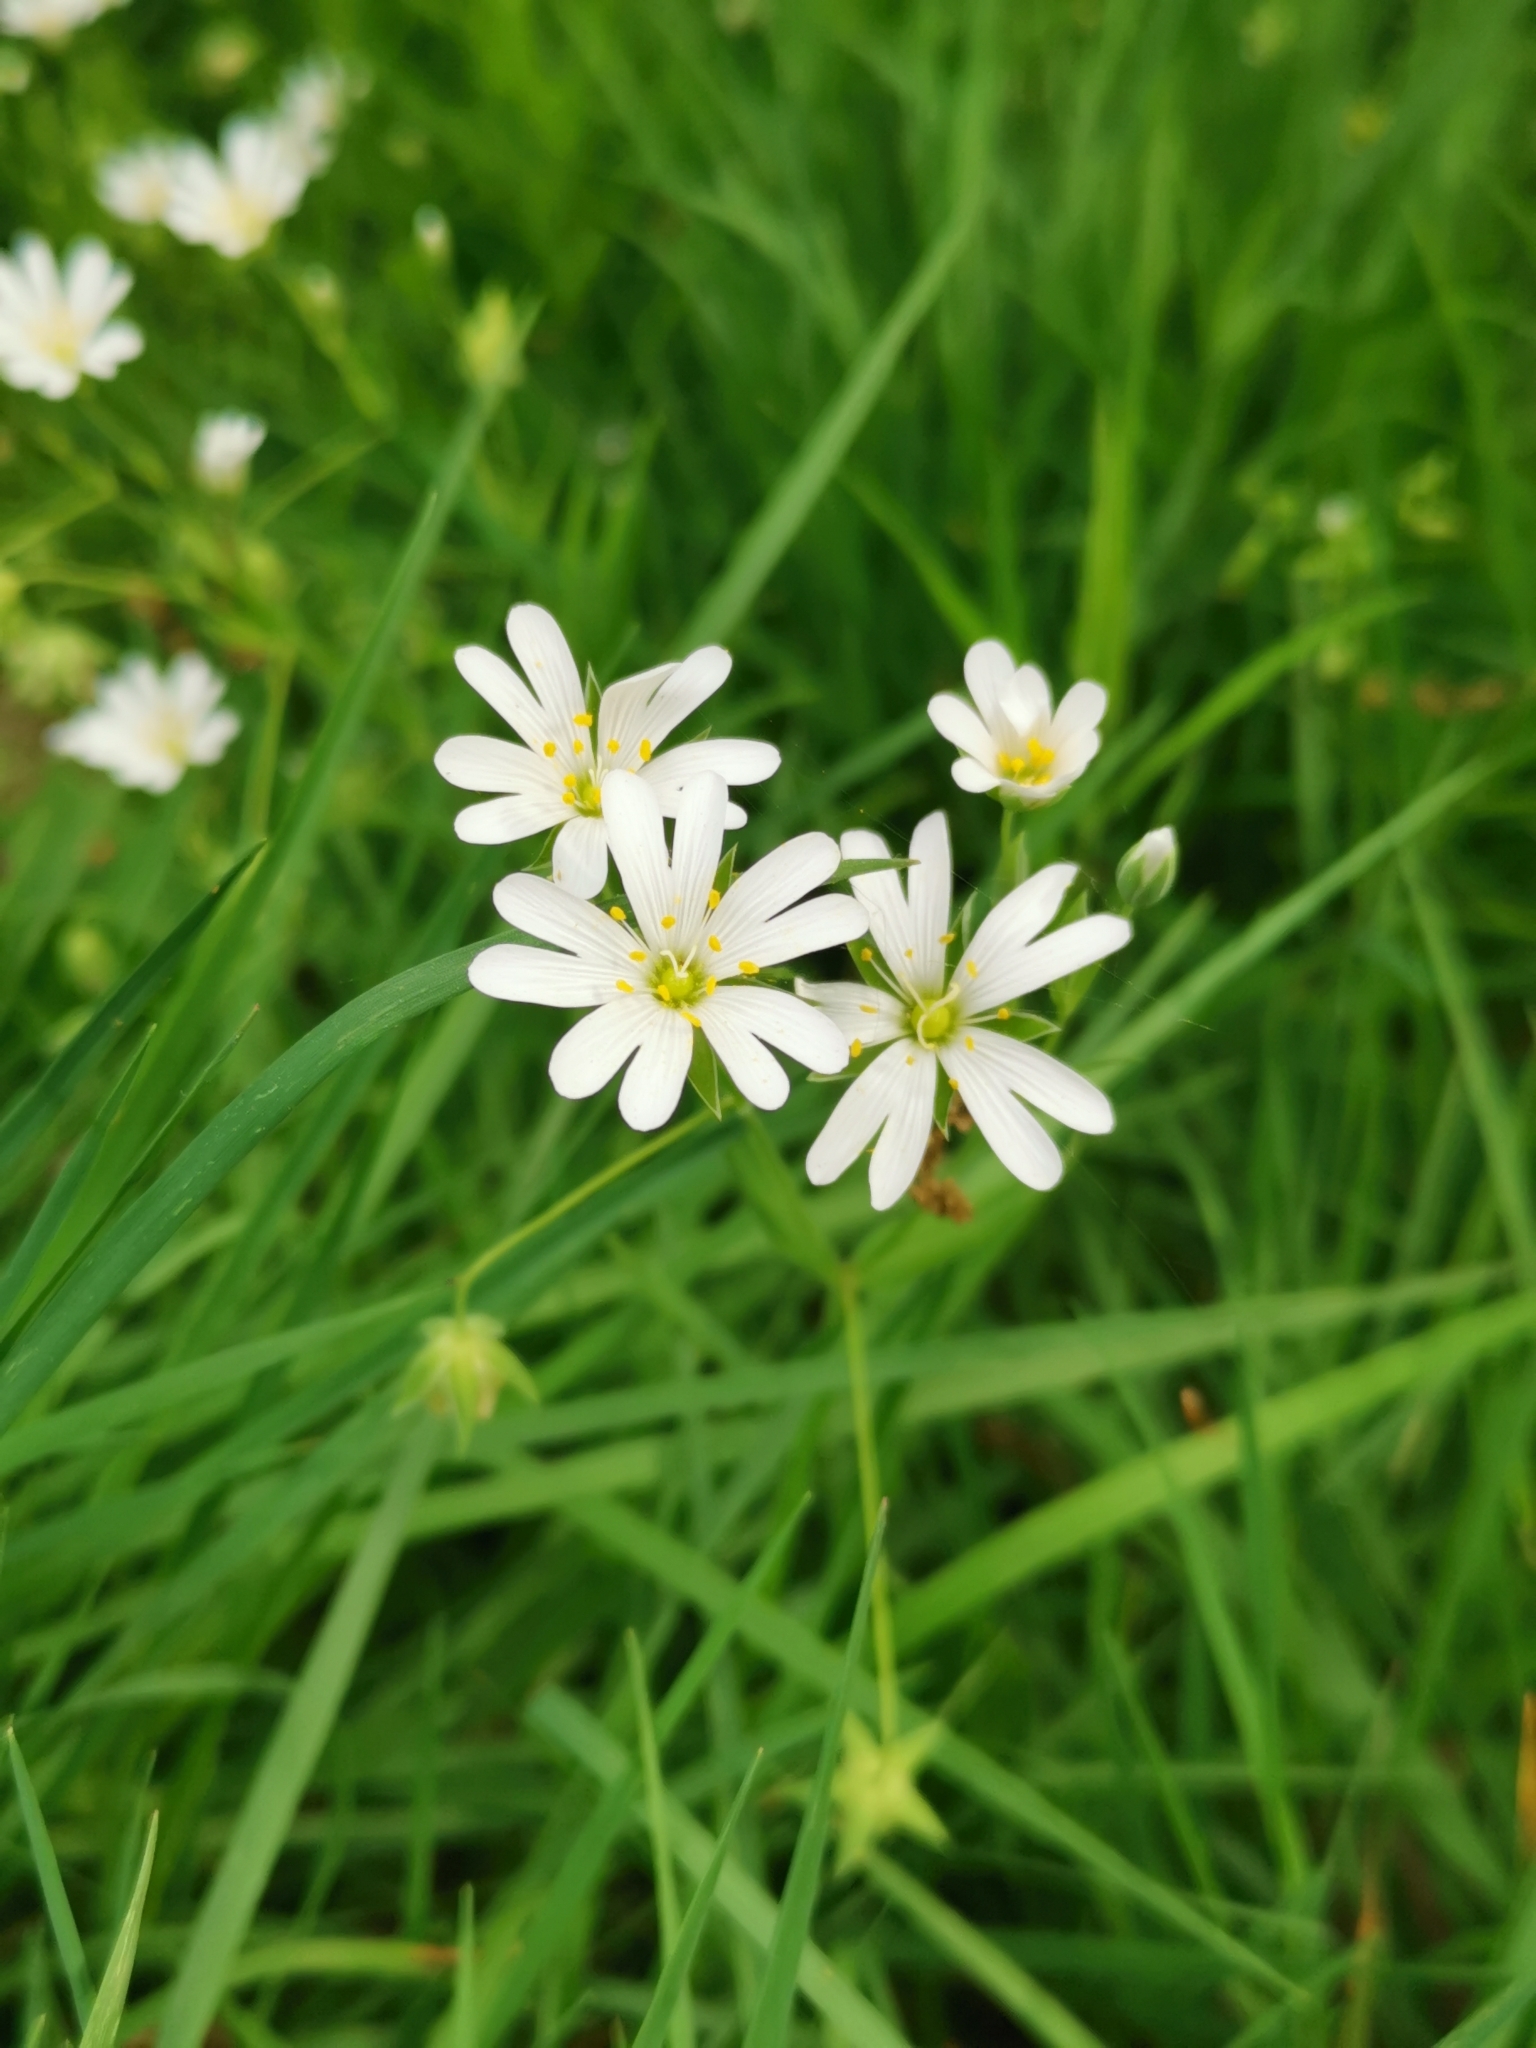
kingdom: Plantae
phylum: Tracheophyta
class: Magnoliopsida
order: Caryophyllales
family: Caryophyllaceae
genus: Rabelera
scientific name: Rabelera holostea
